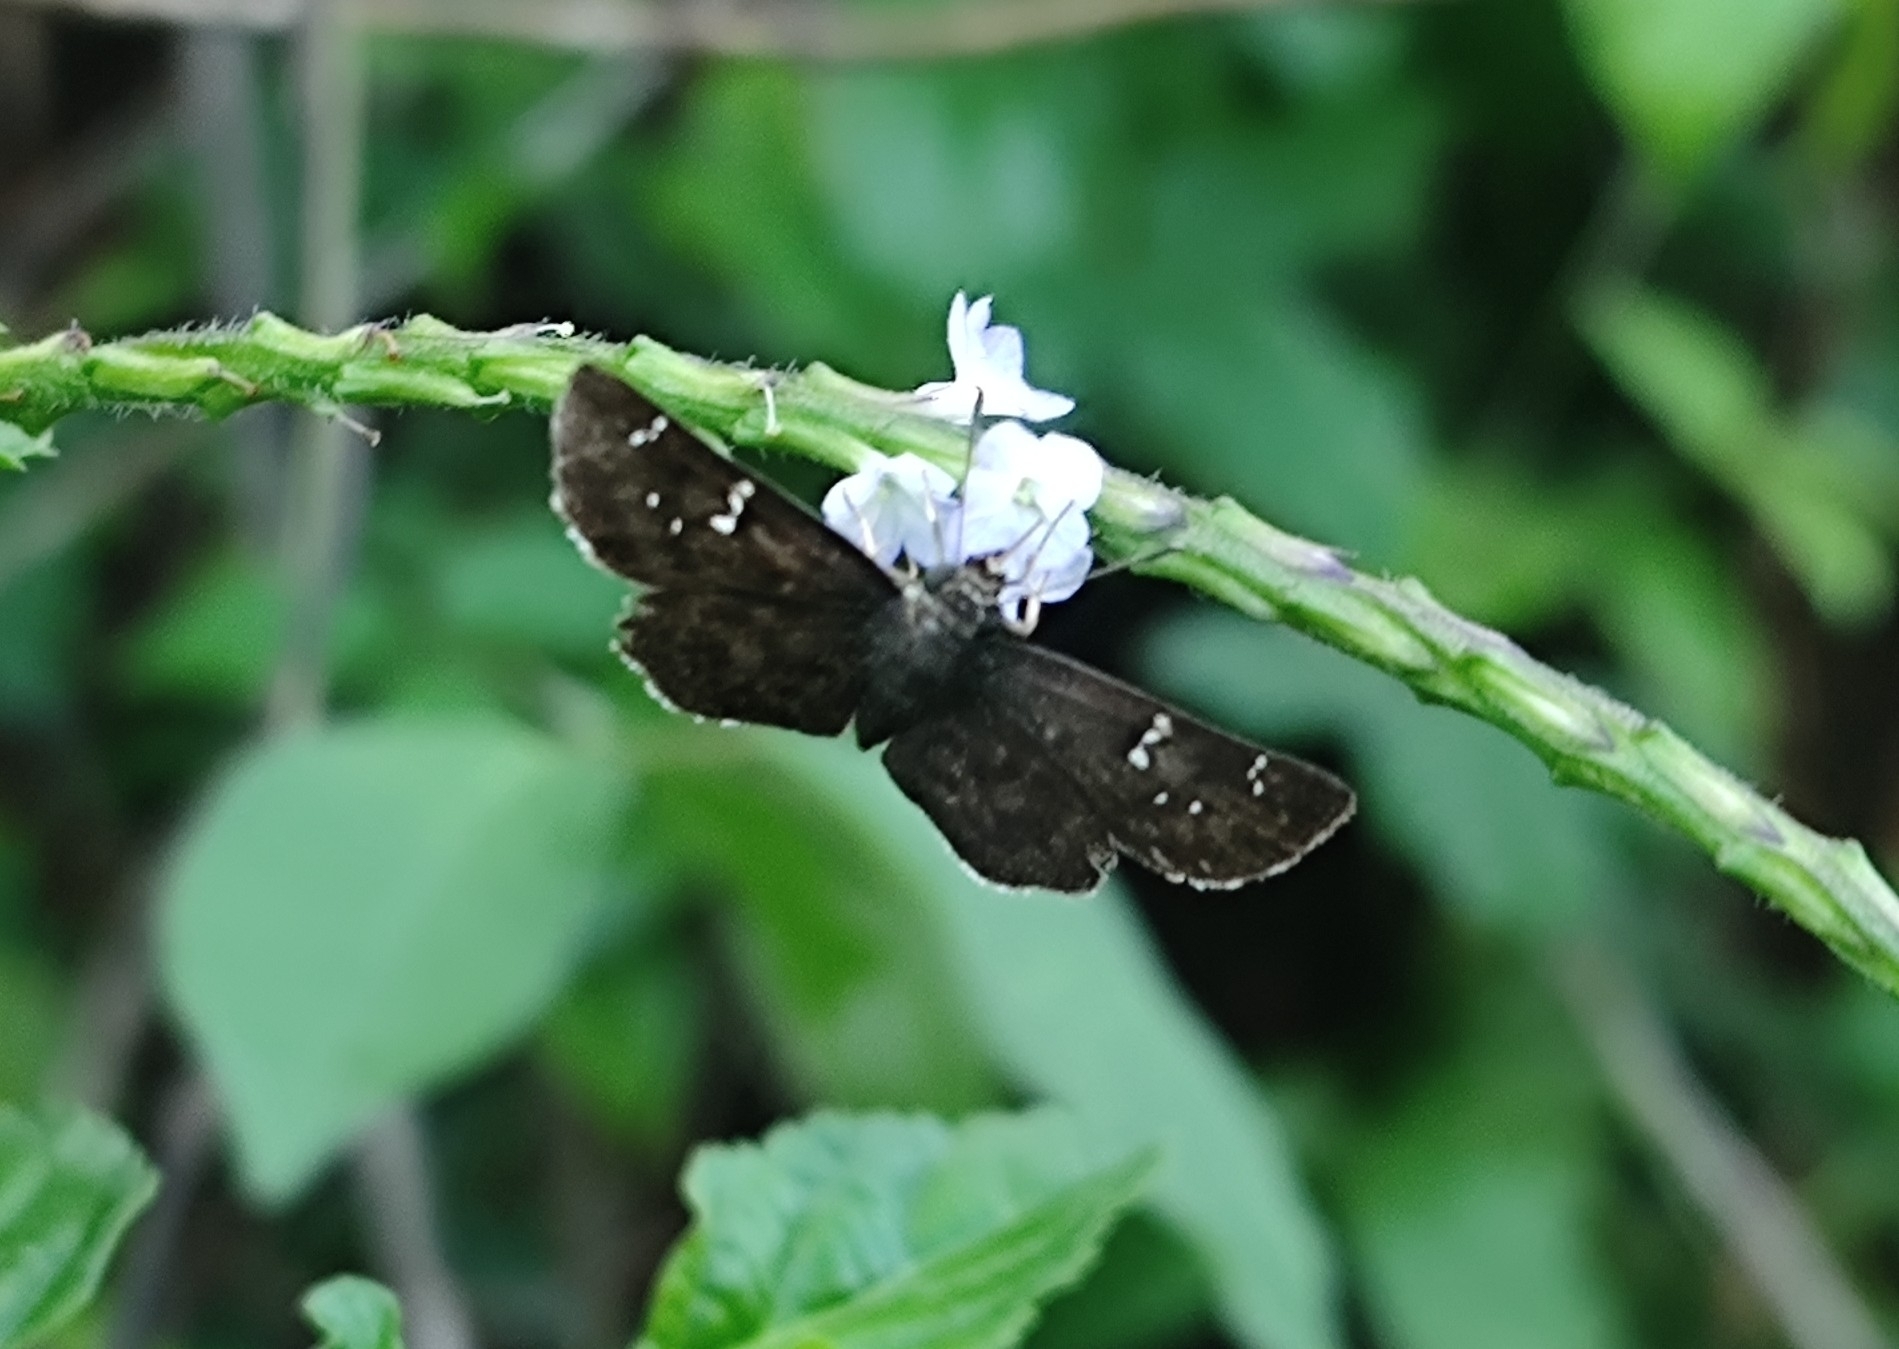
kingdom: Animalia
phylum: Arthropoda
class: Insecta
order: Lepidoptera
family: Hesperiidae
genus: Sarangesa
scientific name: Sarangesa dasahara
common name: Common small flat
